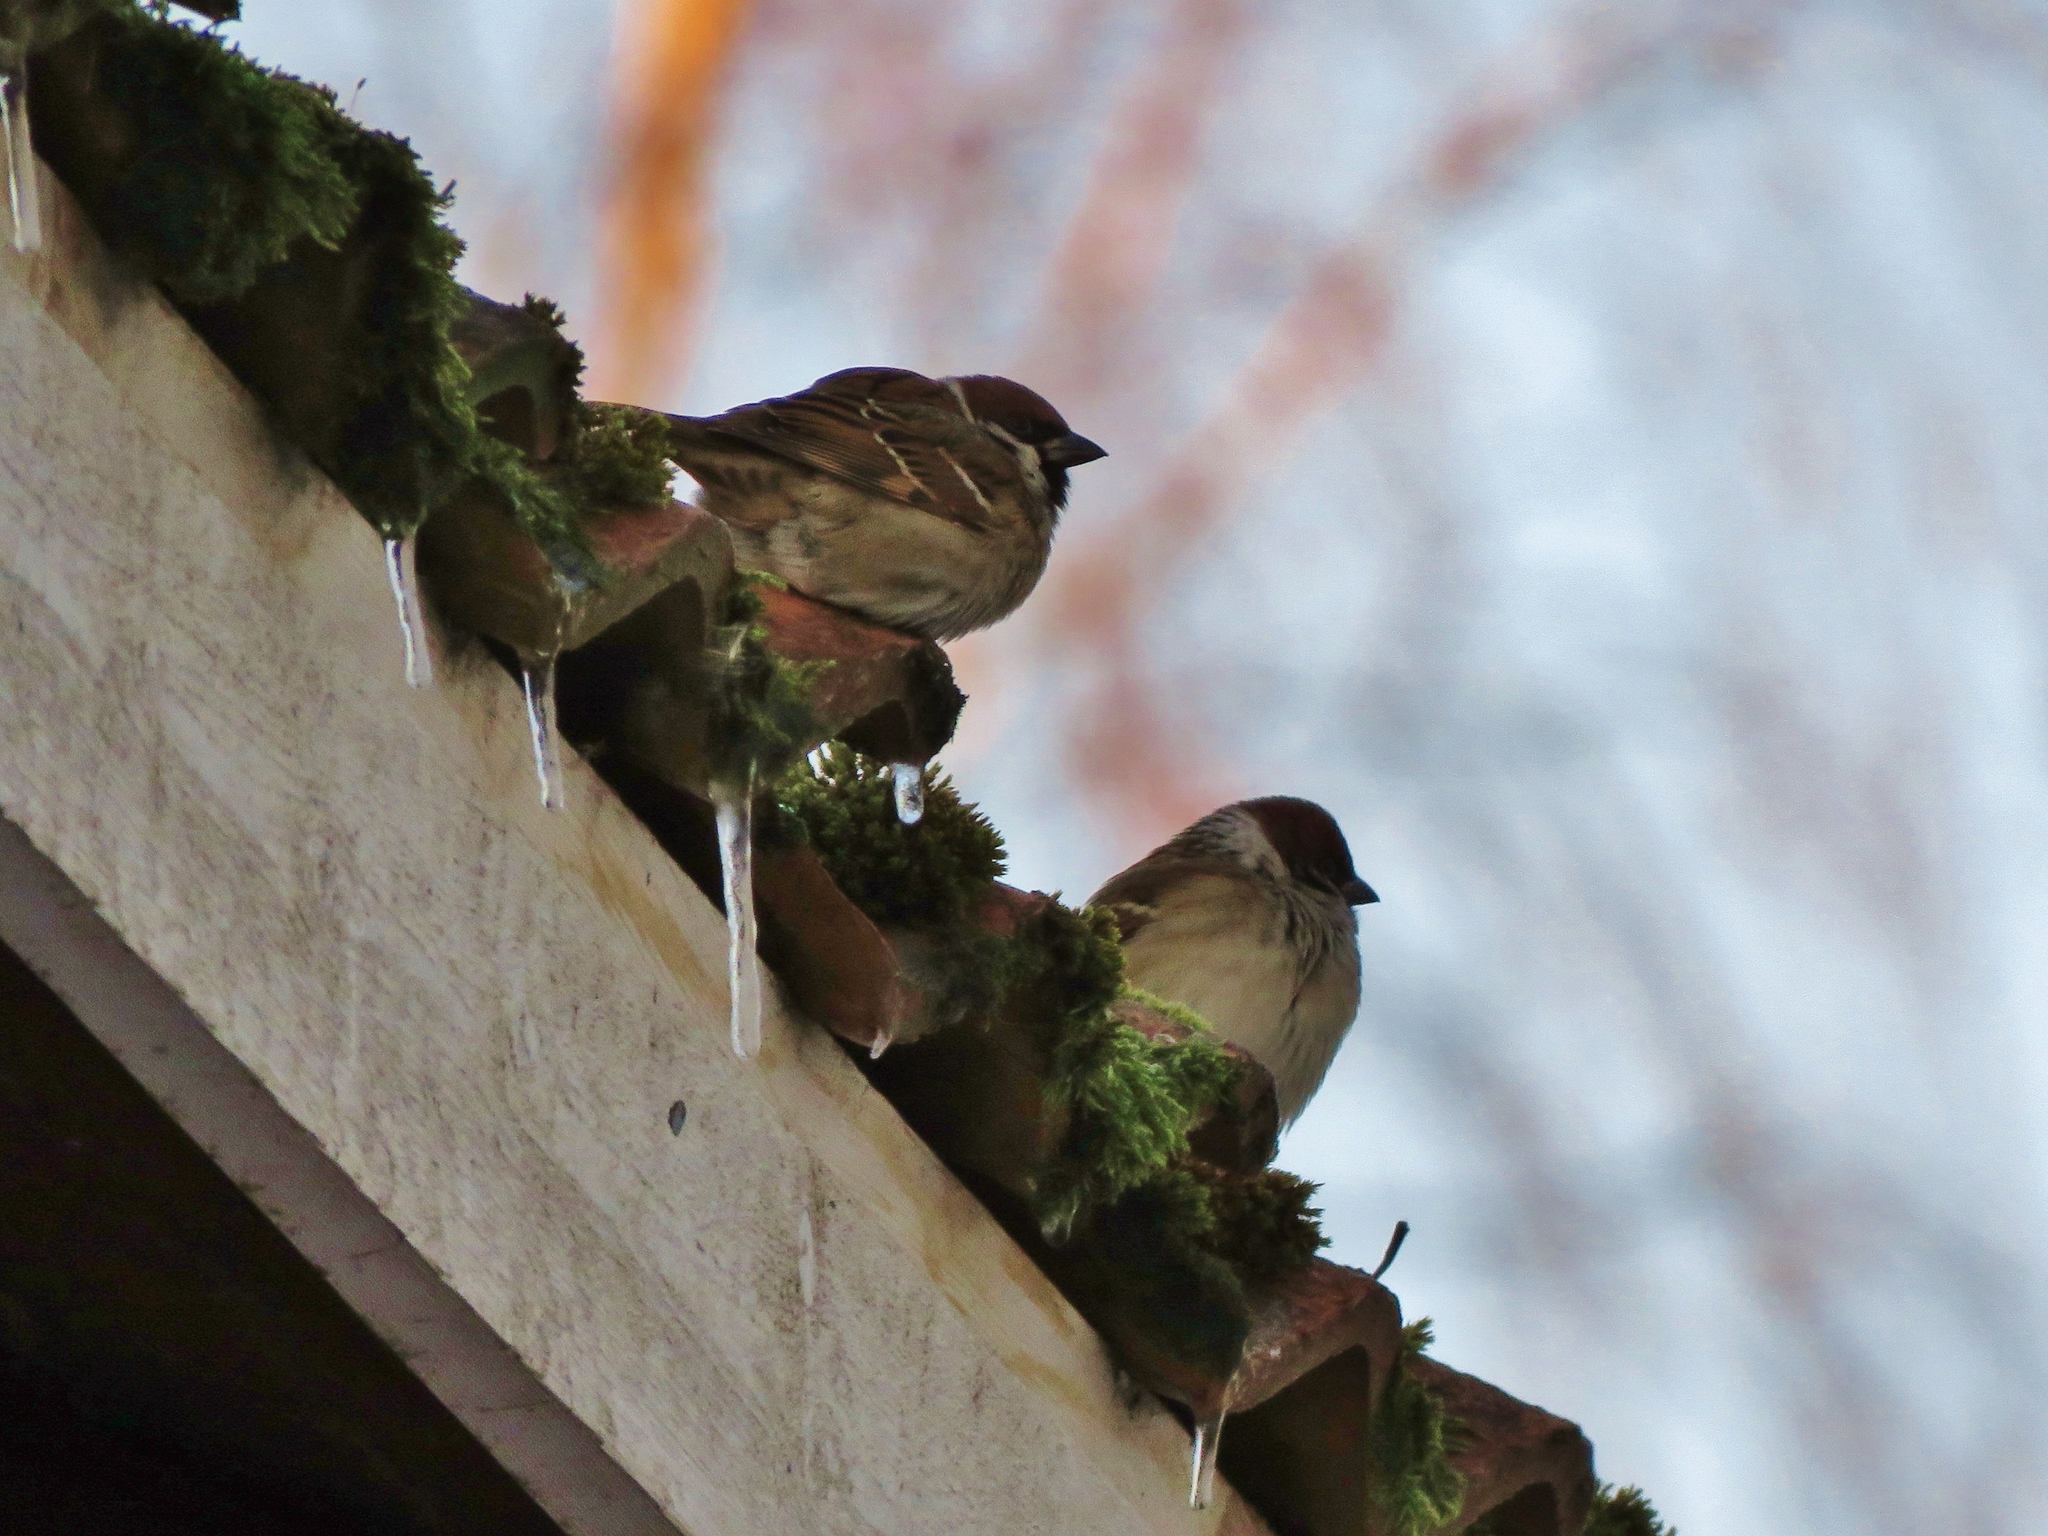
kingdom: Animalia
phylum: Chordata
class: Aves
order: Passeriformes
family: Passeridae
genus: Passer
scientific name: Passer montanus
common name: Eurasian tree sparrow
